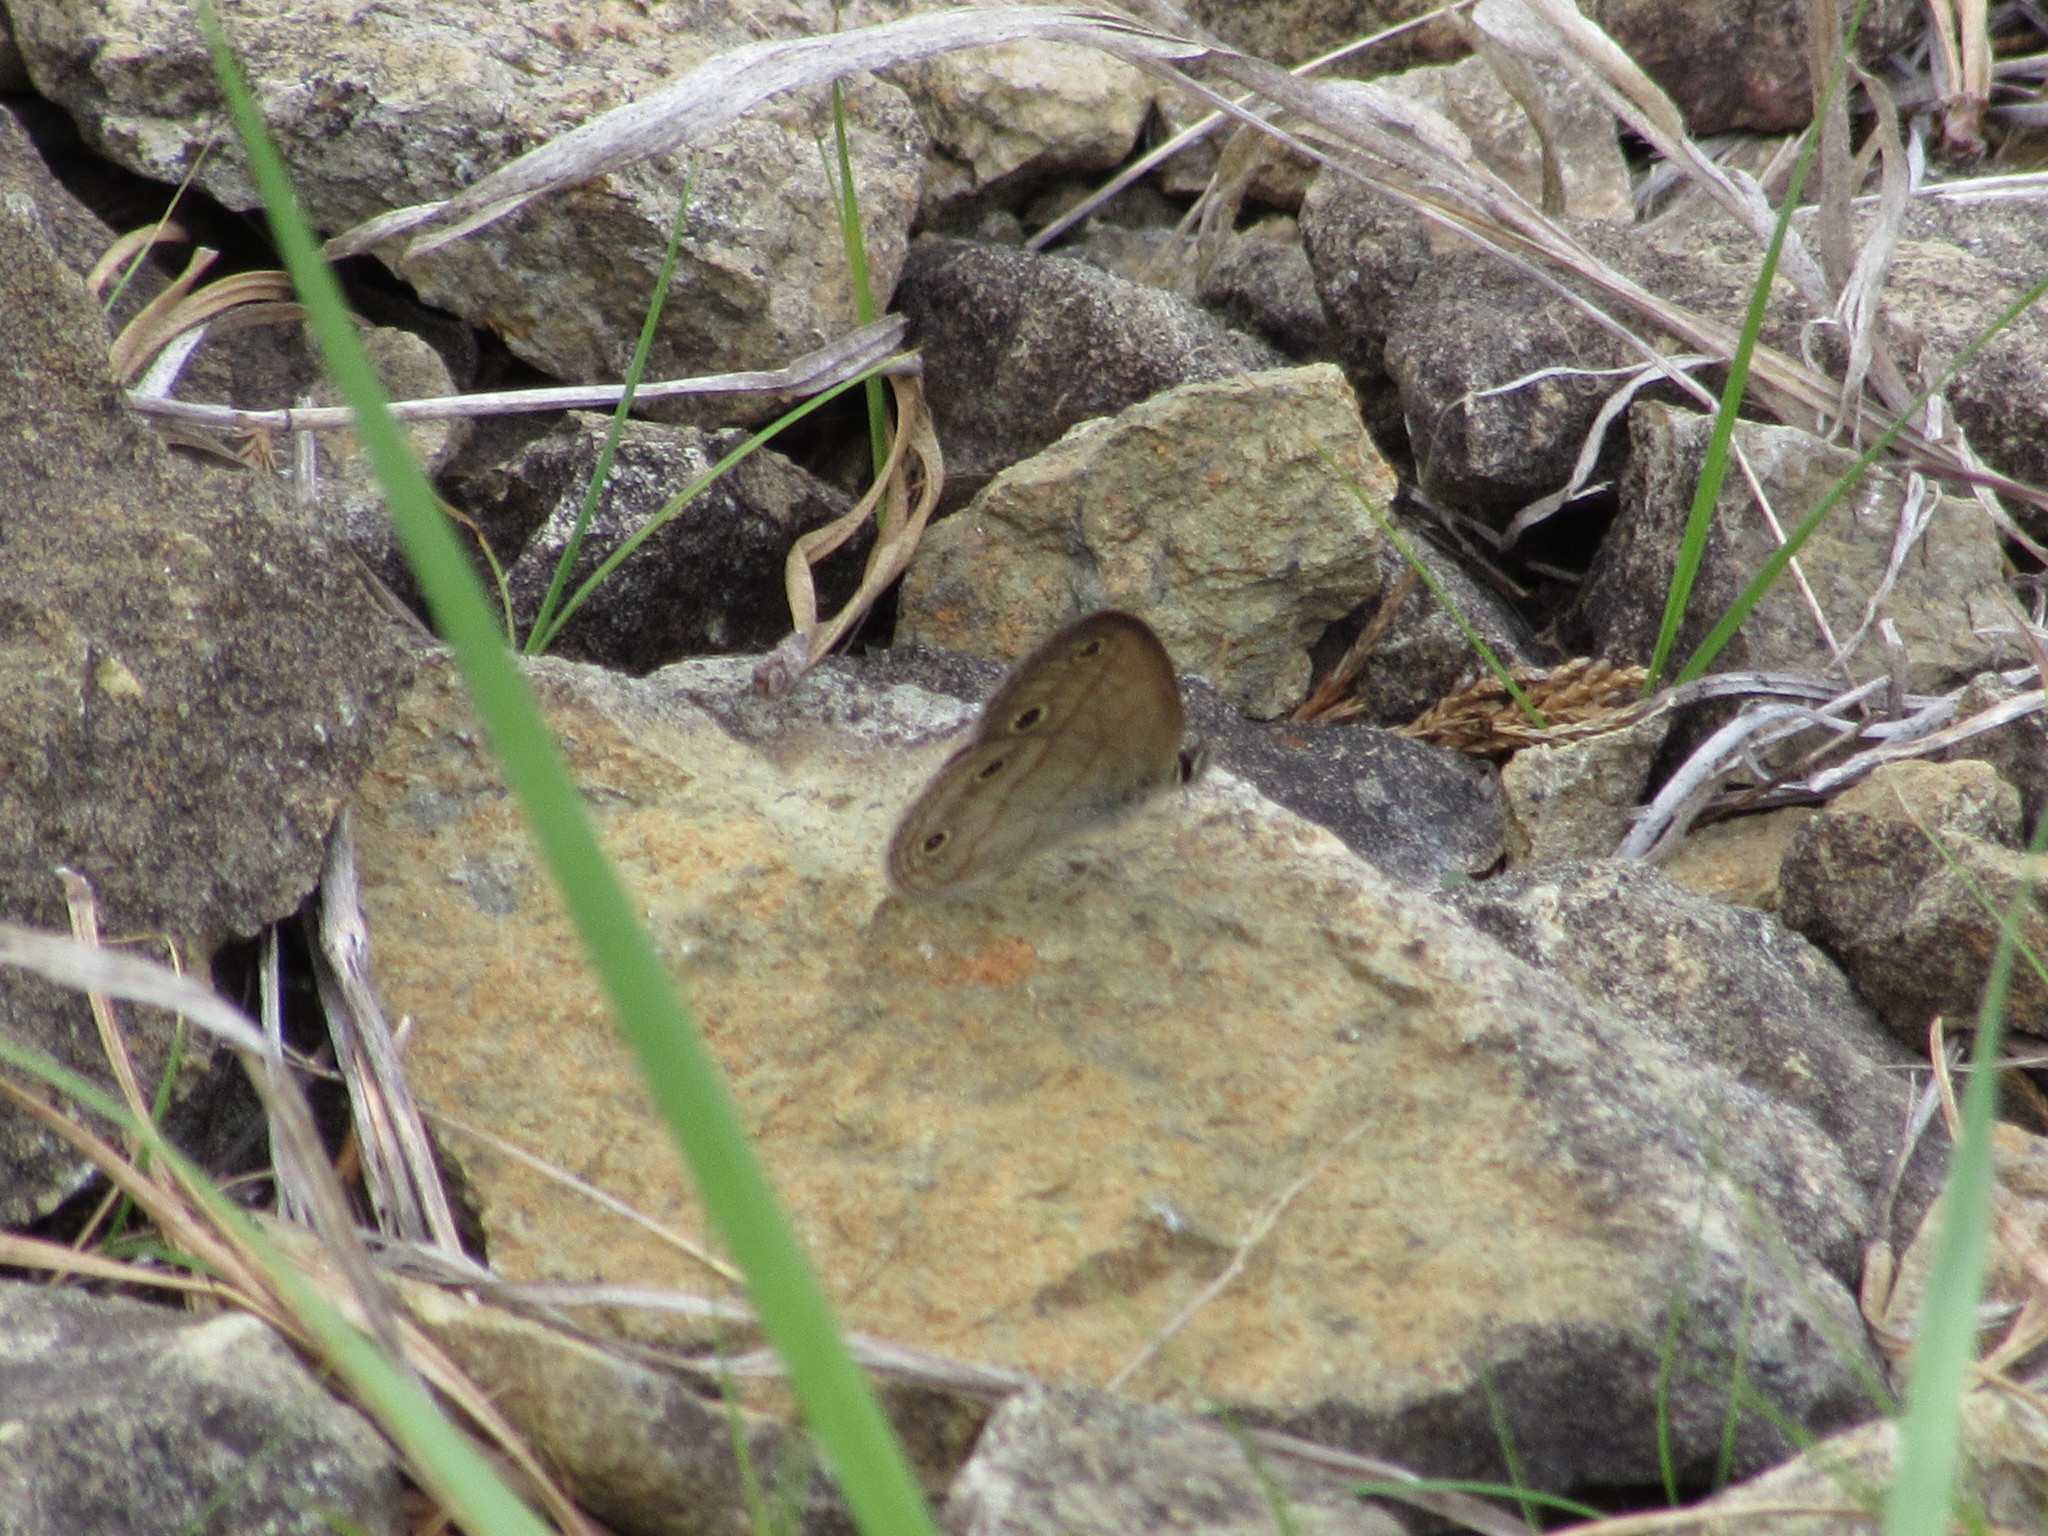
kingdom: Animalia
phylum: Arthropoda
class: Insecta
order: Lepidoptera
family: Nymphalidae
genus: Euptychia
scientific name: Euptychia cymela
